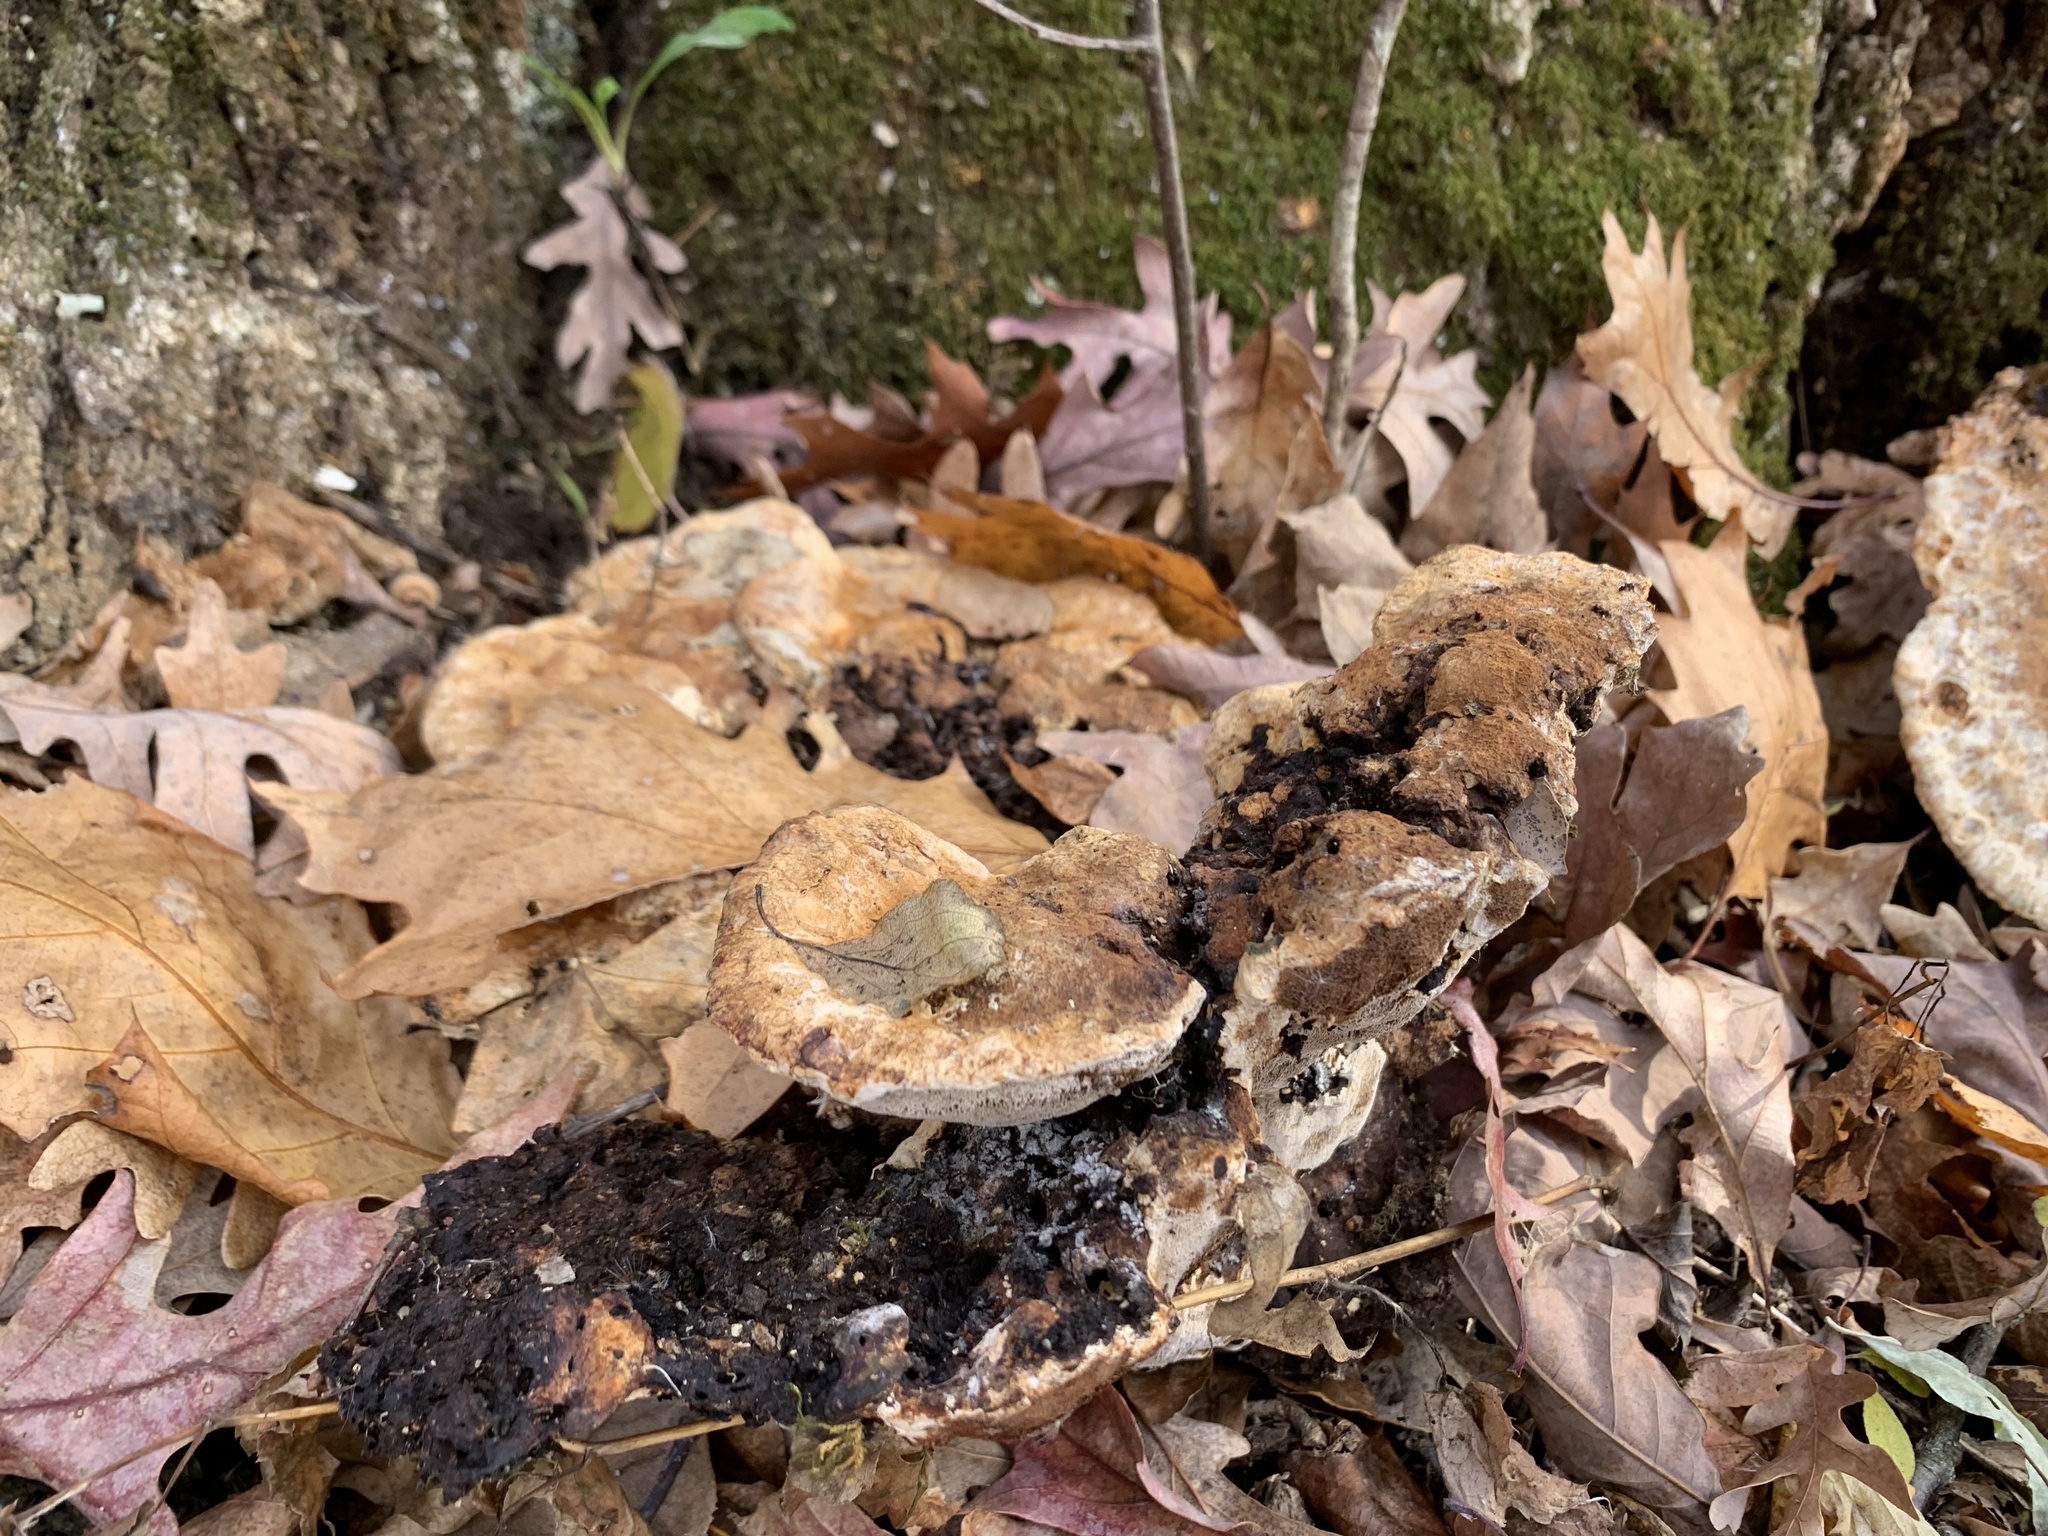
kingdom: Fungi
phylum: Basidiomycota
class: Agaricomycetes
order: Hymenochaetales
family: Hymenochaetaceae
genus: Pseudoinonotus
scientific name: Pseudoinonotus dryadeus
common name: Oak bracket
